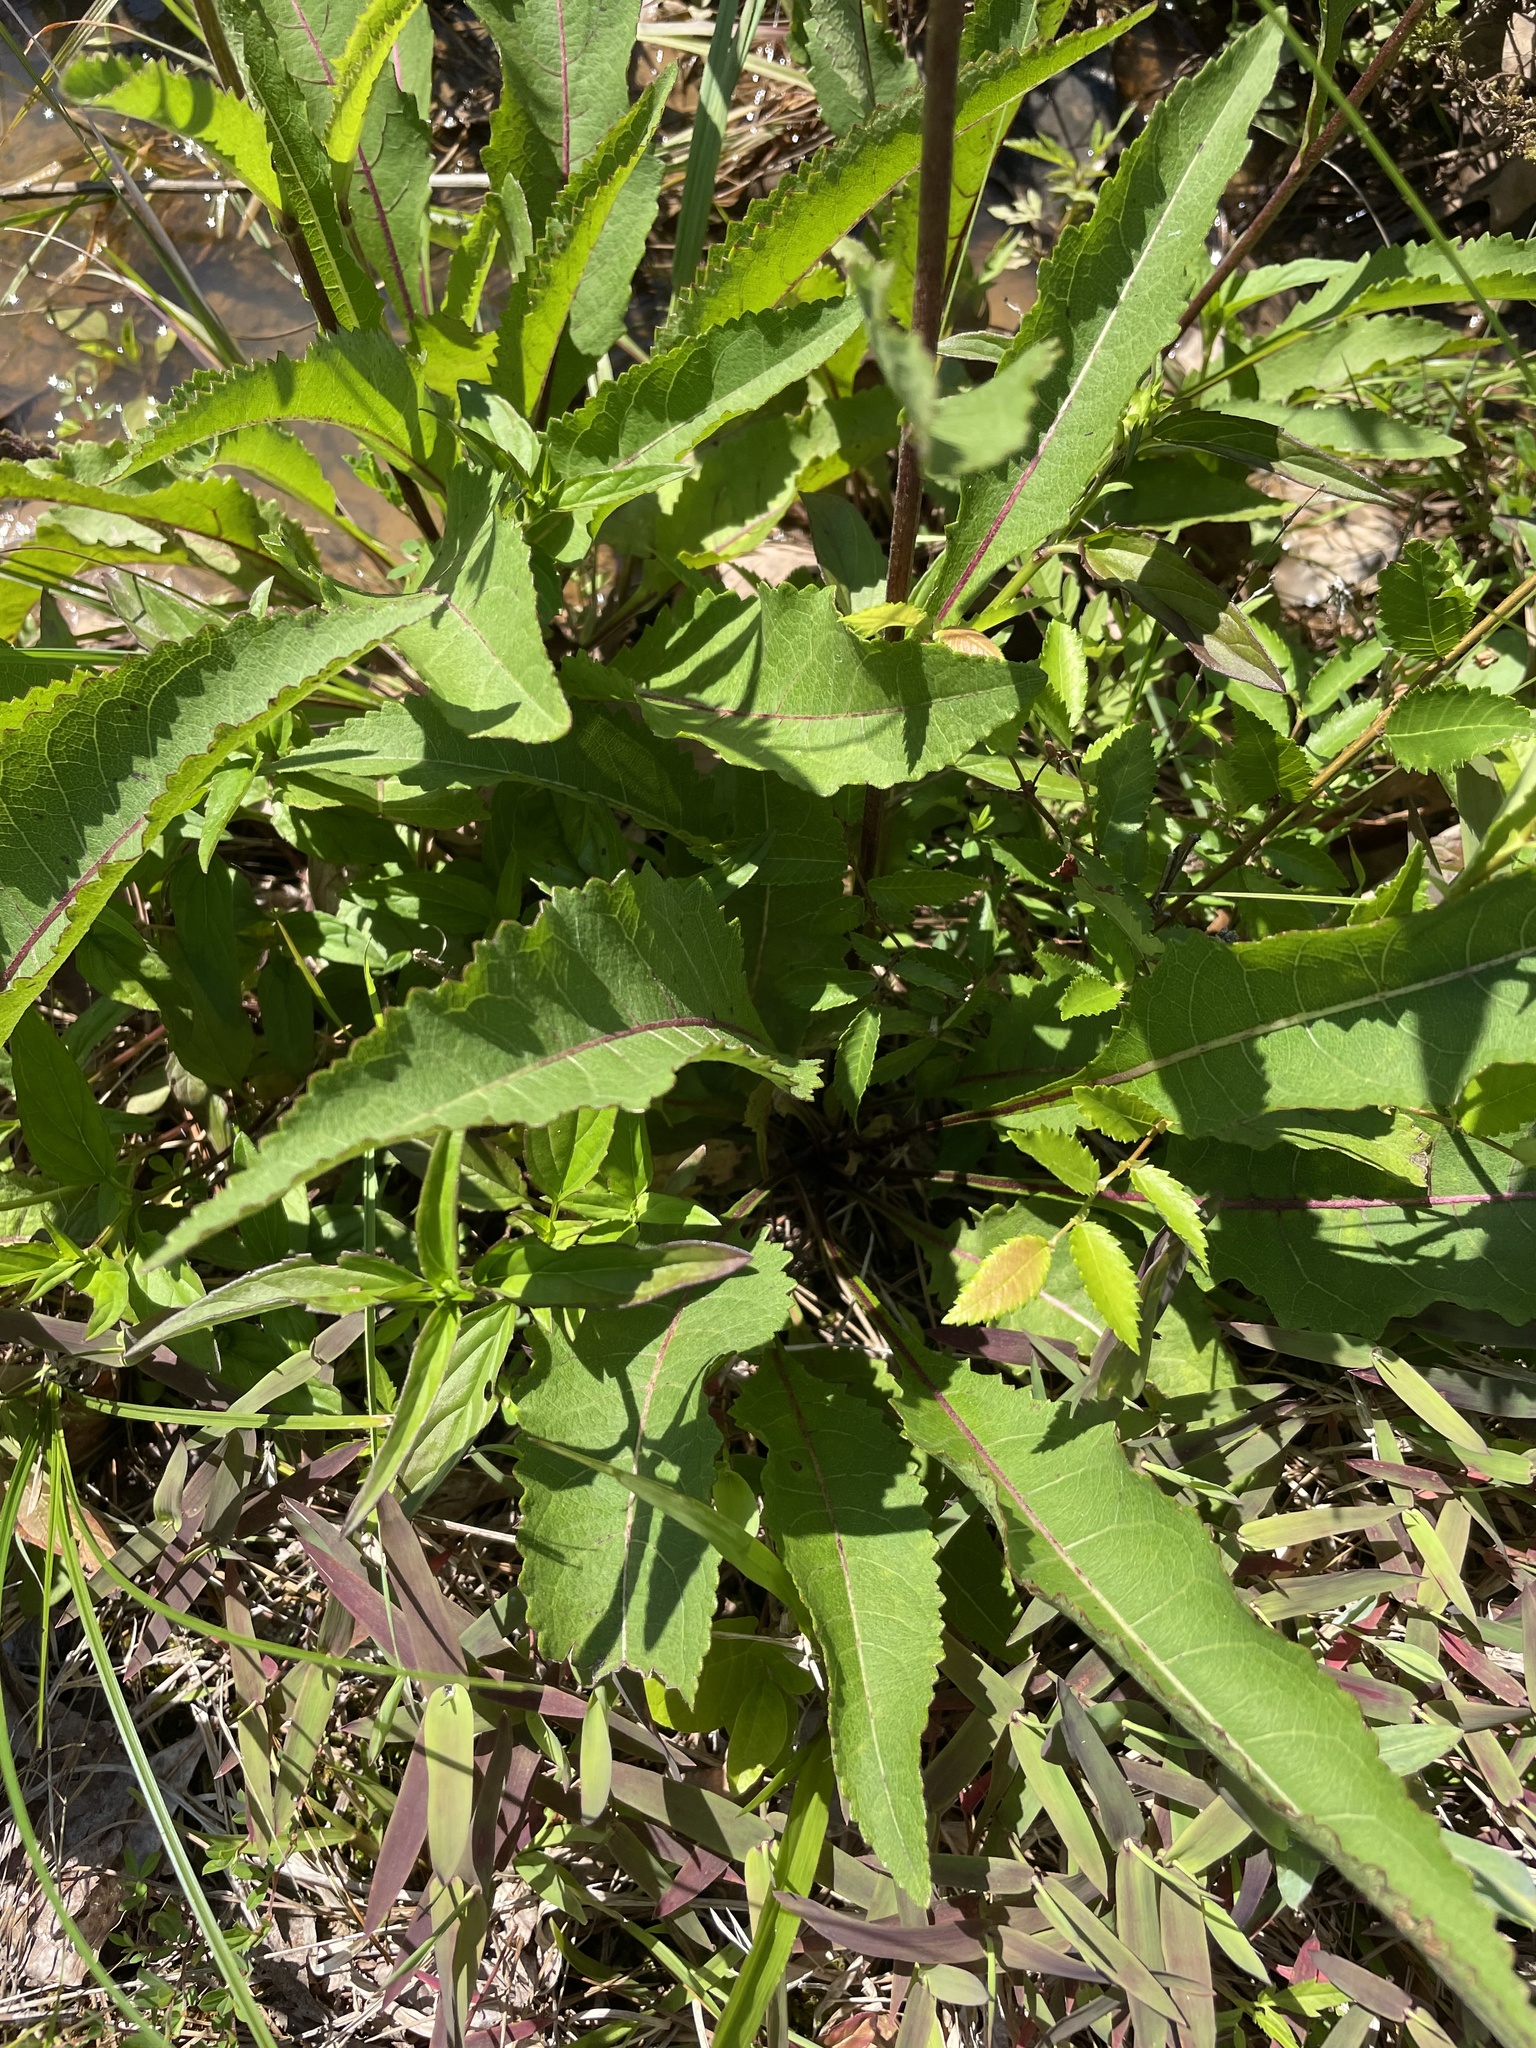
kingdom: Plantae
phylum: Tracheophyta
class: Magnoliopsida
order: Asterales
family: Asteraceae
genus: Parthenium
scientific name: Parthenium integrifolium
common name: American feverfew
